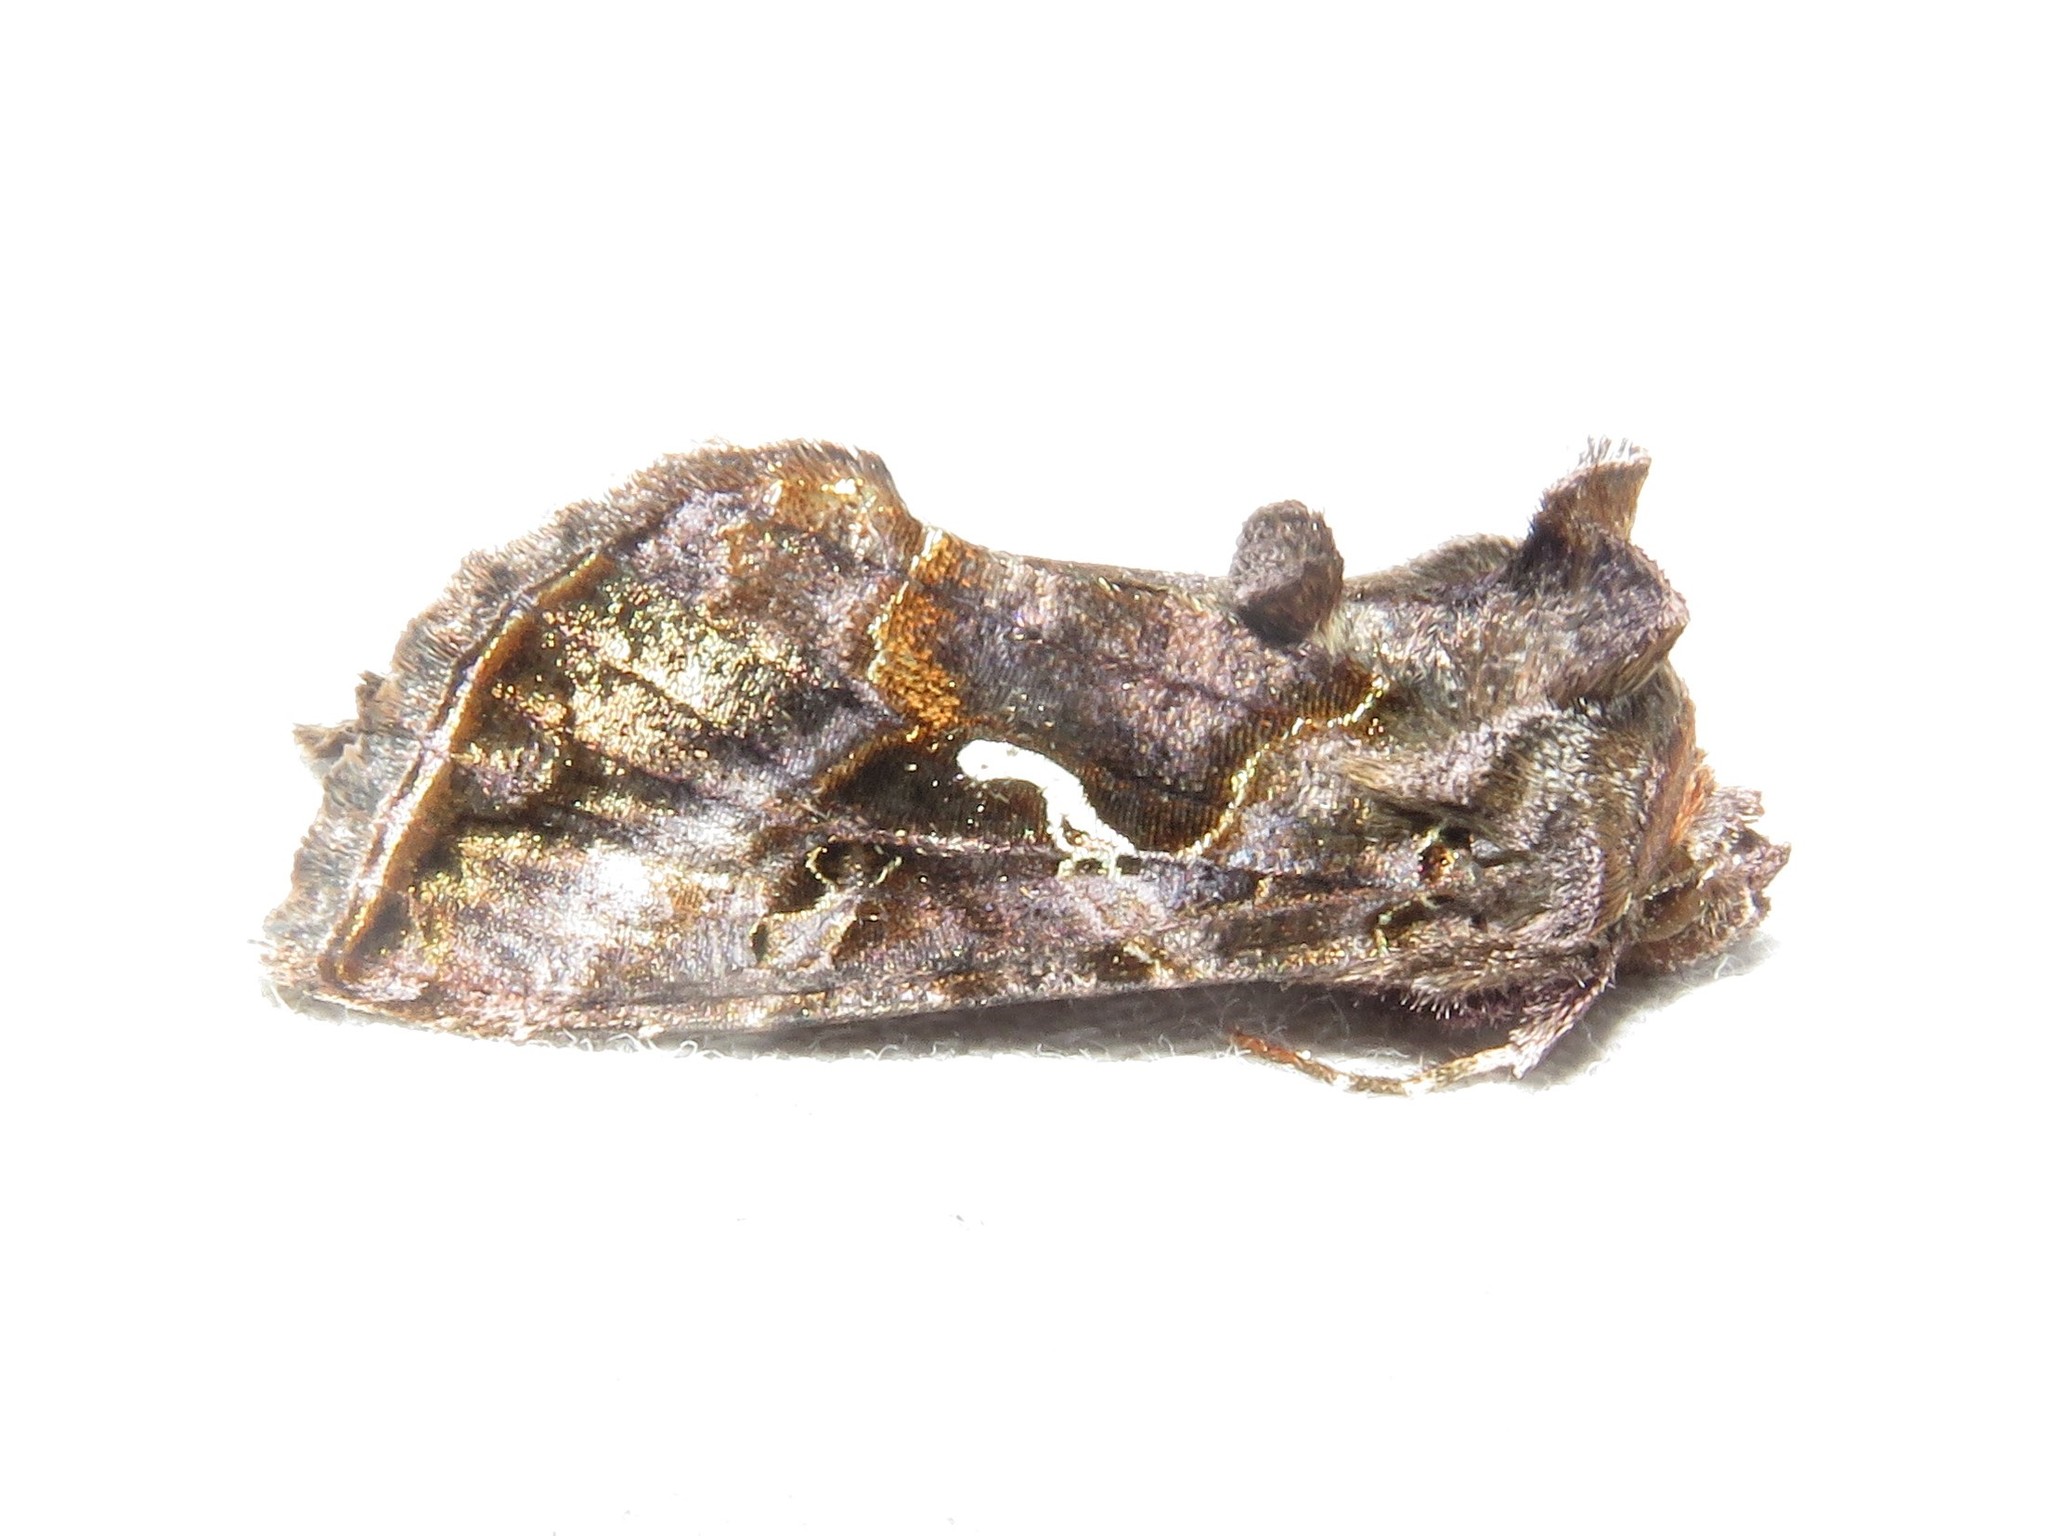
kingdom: Animalia
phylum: Arthropoda
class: Insecta
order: Lepidoptera
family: Noctuidae
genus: Autographa
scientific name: Autographa precationis
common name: Common looper moth
